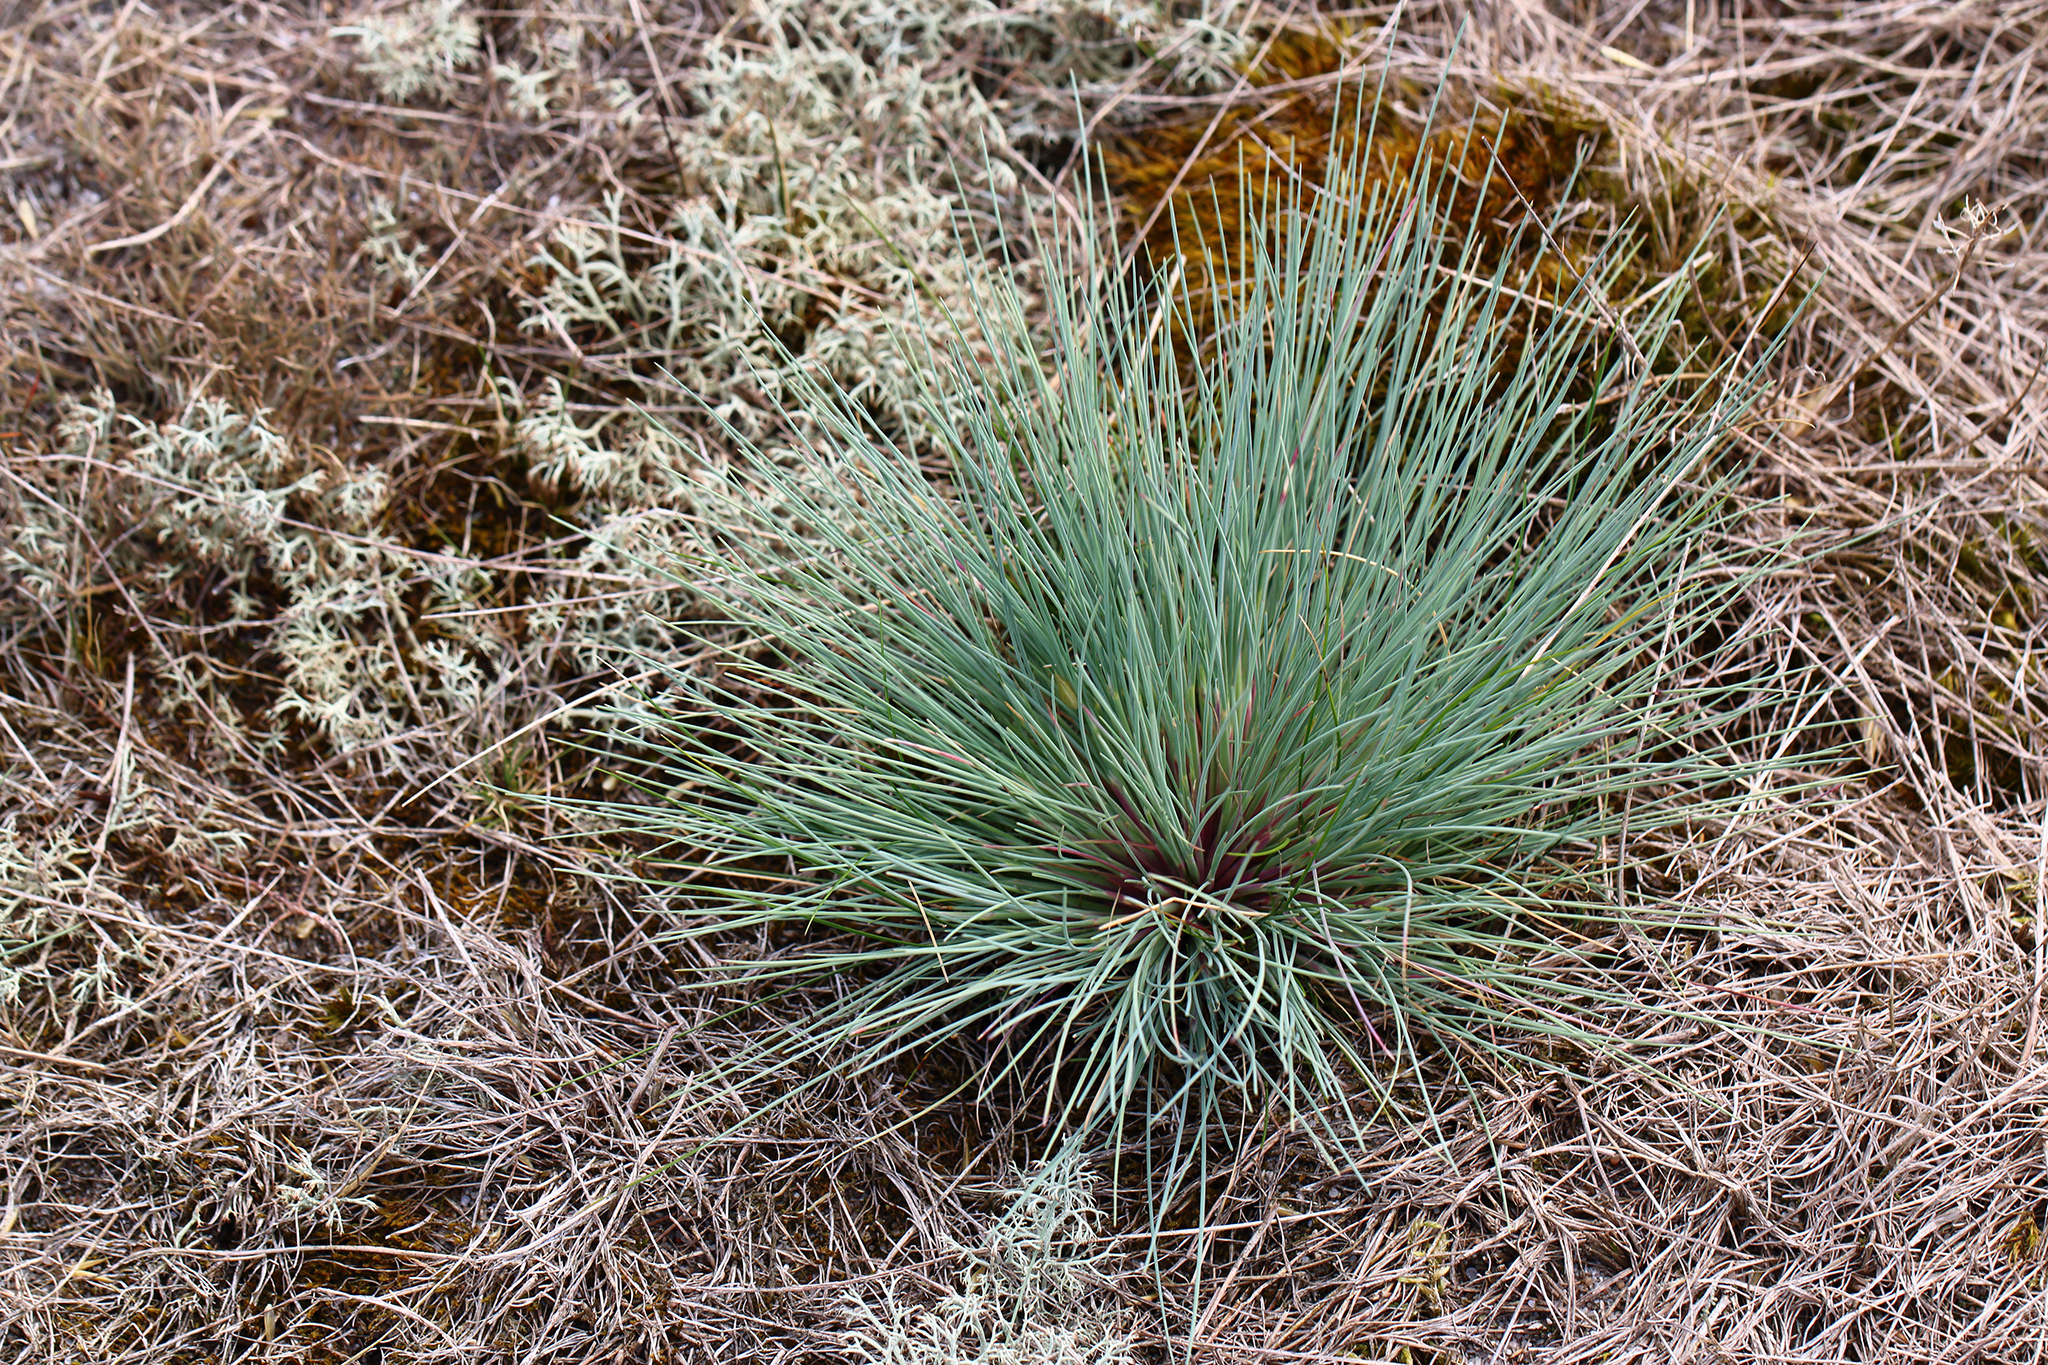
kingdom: Plantae
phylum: Tracheophyta
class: Liliopsida
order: Poales
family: Poaceae
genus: Corynephorus
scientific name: Corynephorus canescens
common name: Grey hair-grass
